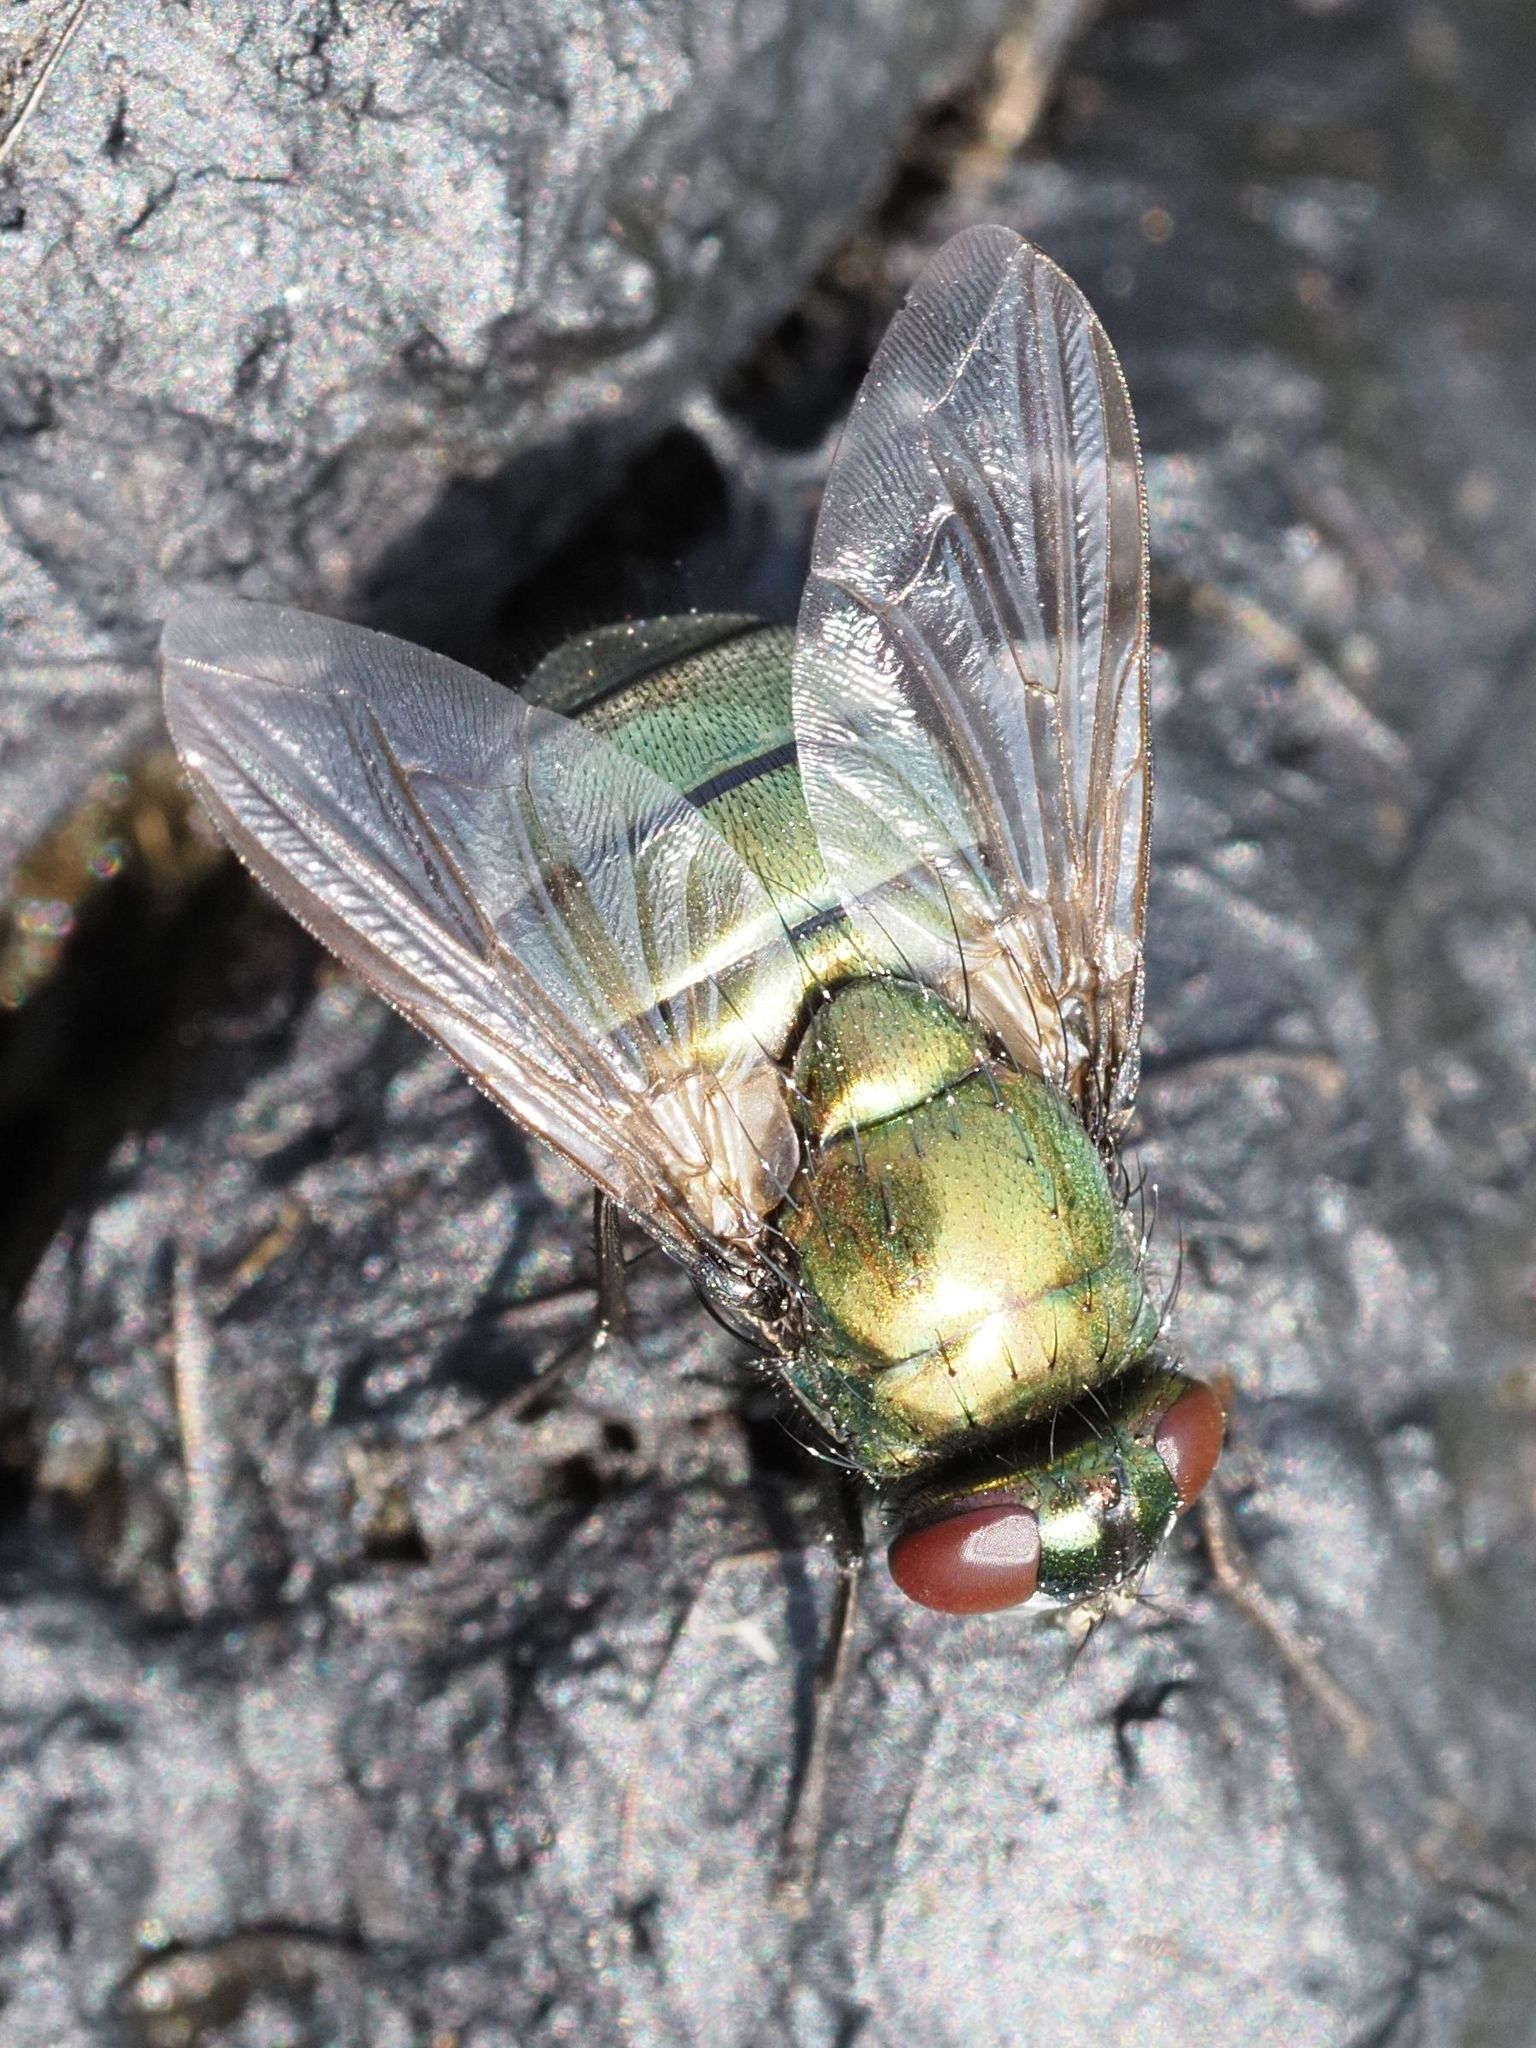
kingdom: Animalia
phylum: Arthropoda
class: Insecta
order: Diptera
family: Muscidae
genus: Neomyia
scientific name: Neomyia cornicina
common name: House fly
